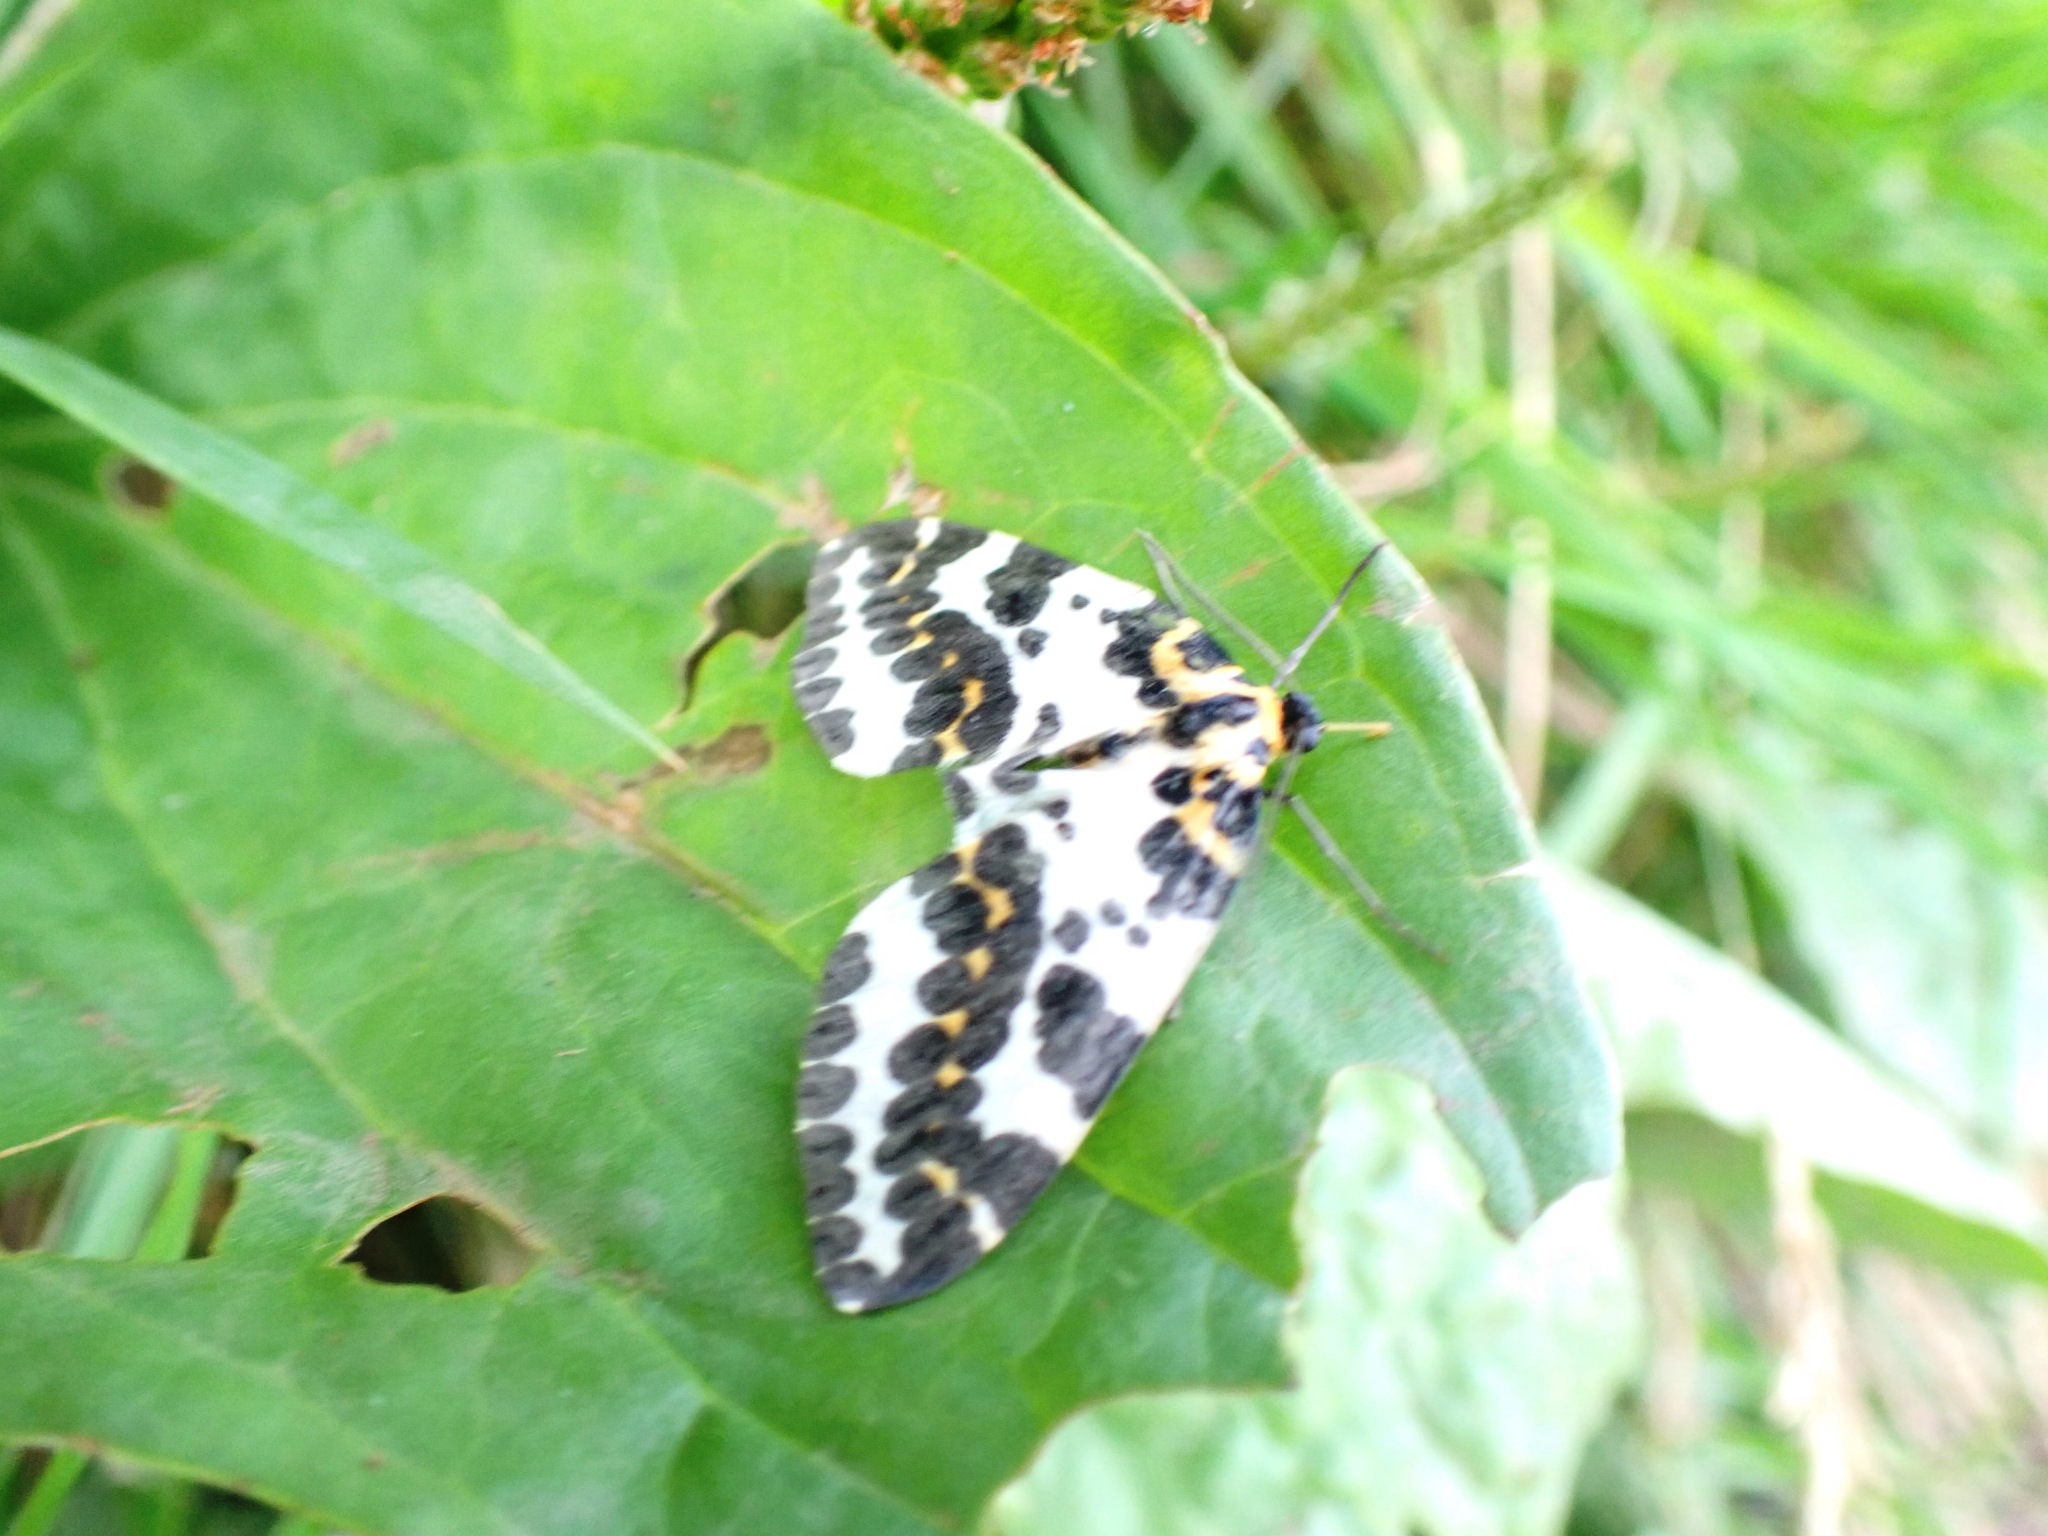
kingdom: Animalia
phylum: Arthropoda
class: Insecta
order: Lepidoptera
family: Geometridae
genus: Abraxas
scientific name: Abraxas grossulariata
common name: Magpie
